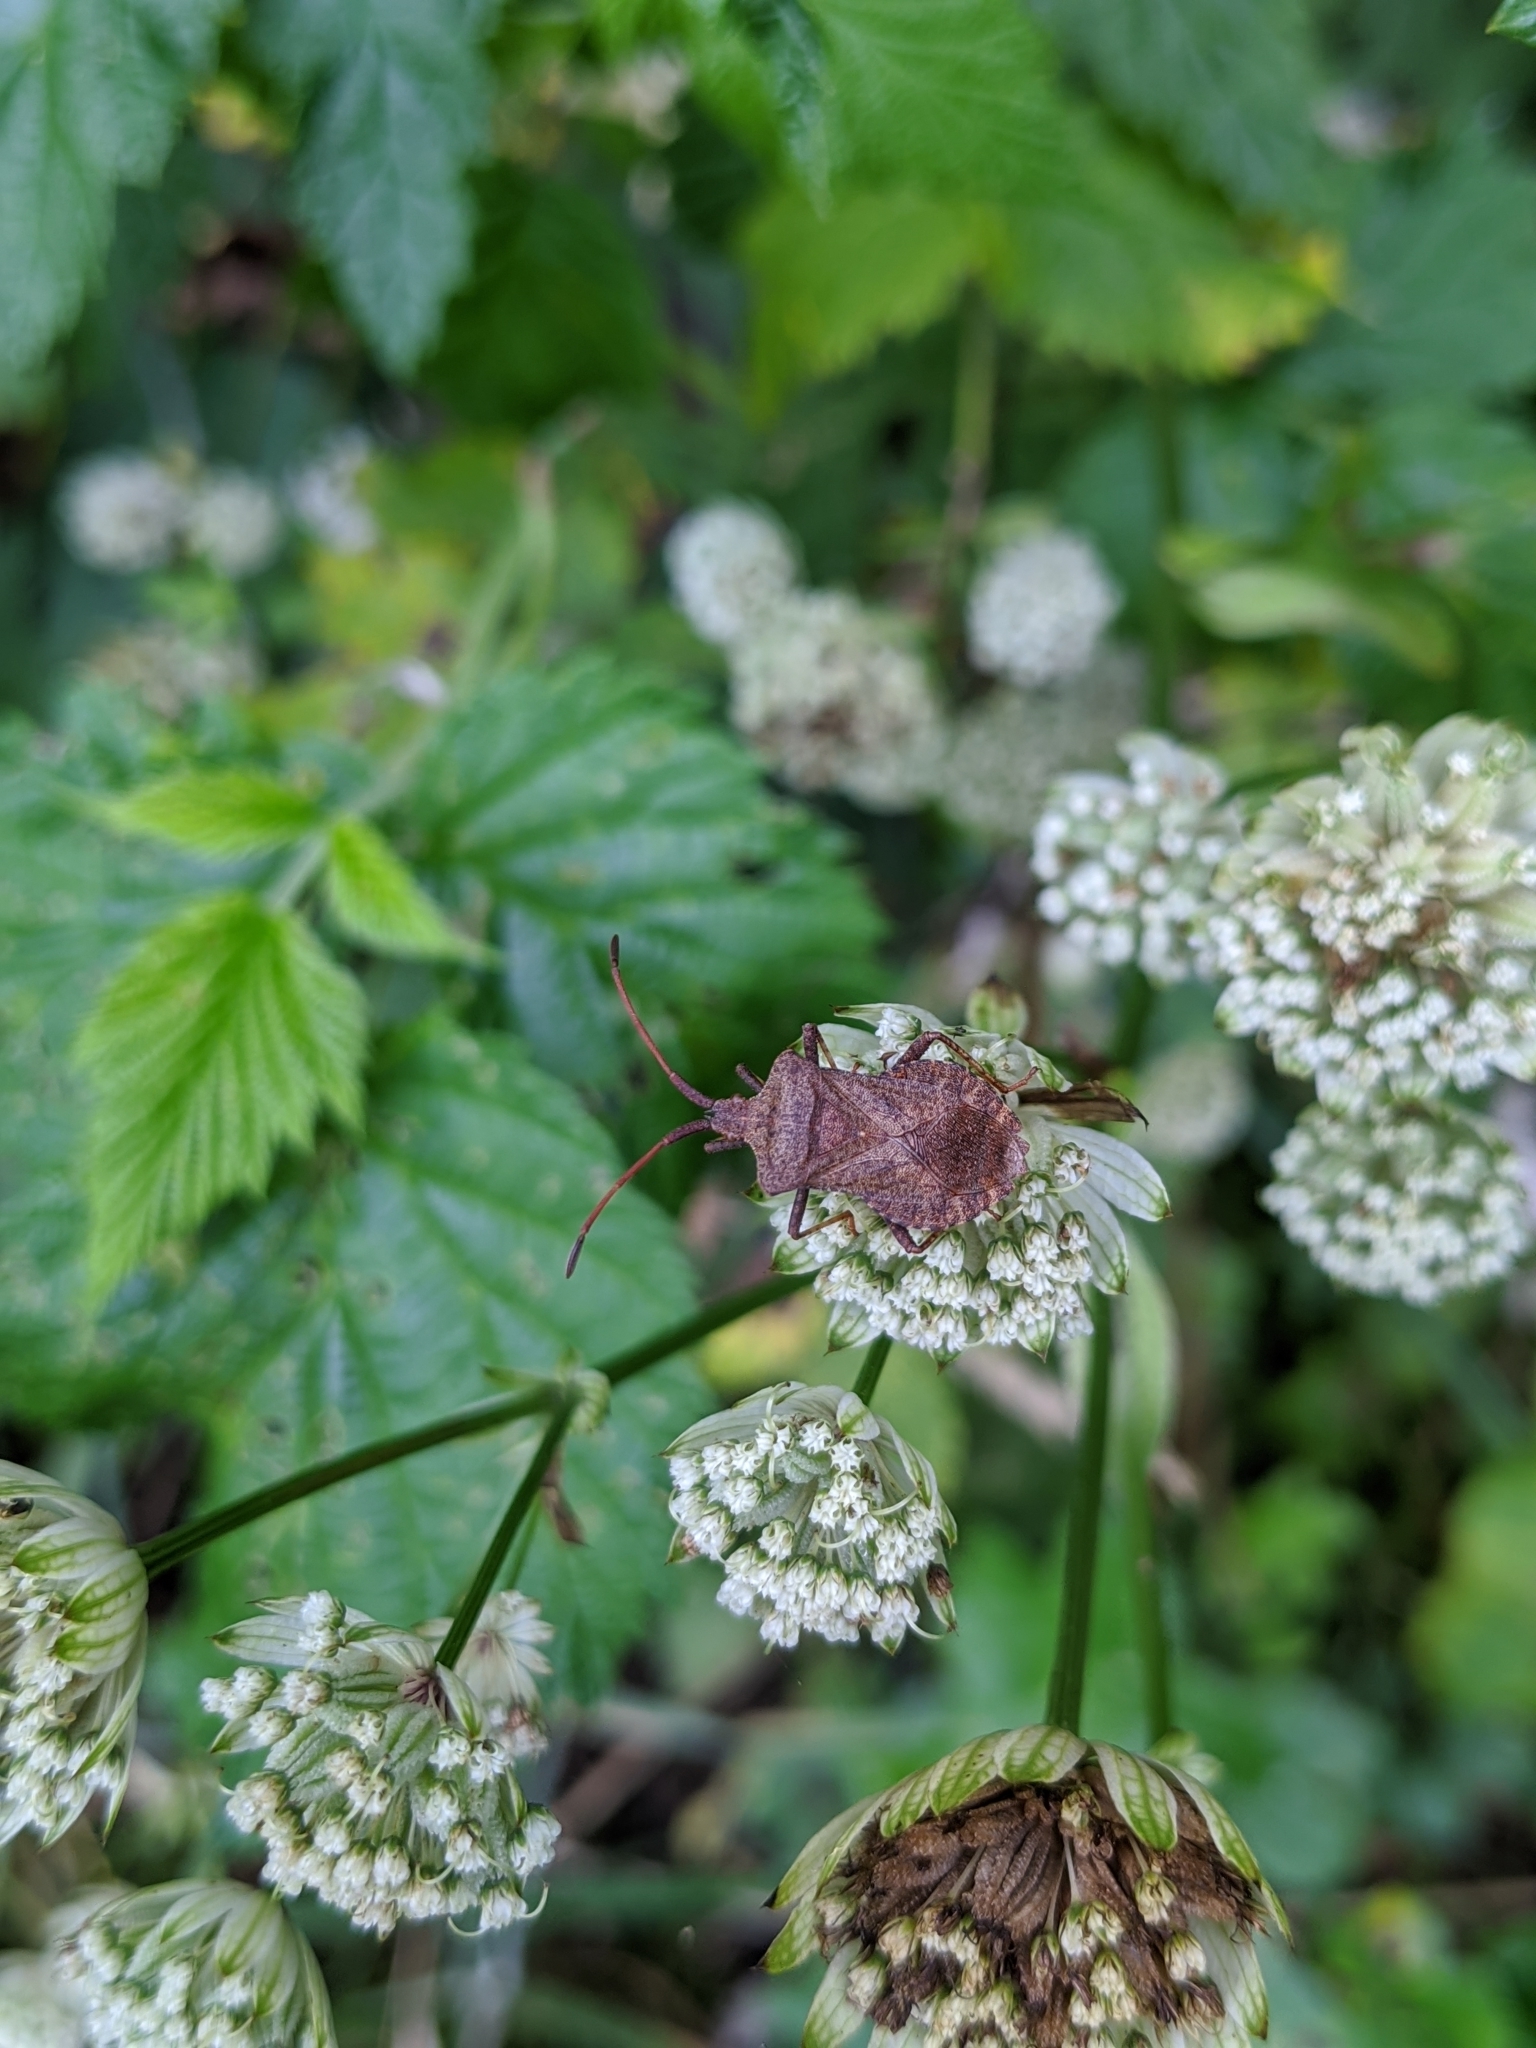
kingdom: Animalia
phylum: Arthropoda
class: Insecta
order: Hemiptera
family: Coreidae
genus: Coreus
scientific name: Coreus marginatus
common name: Dock bug
